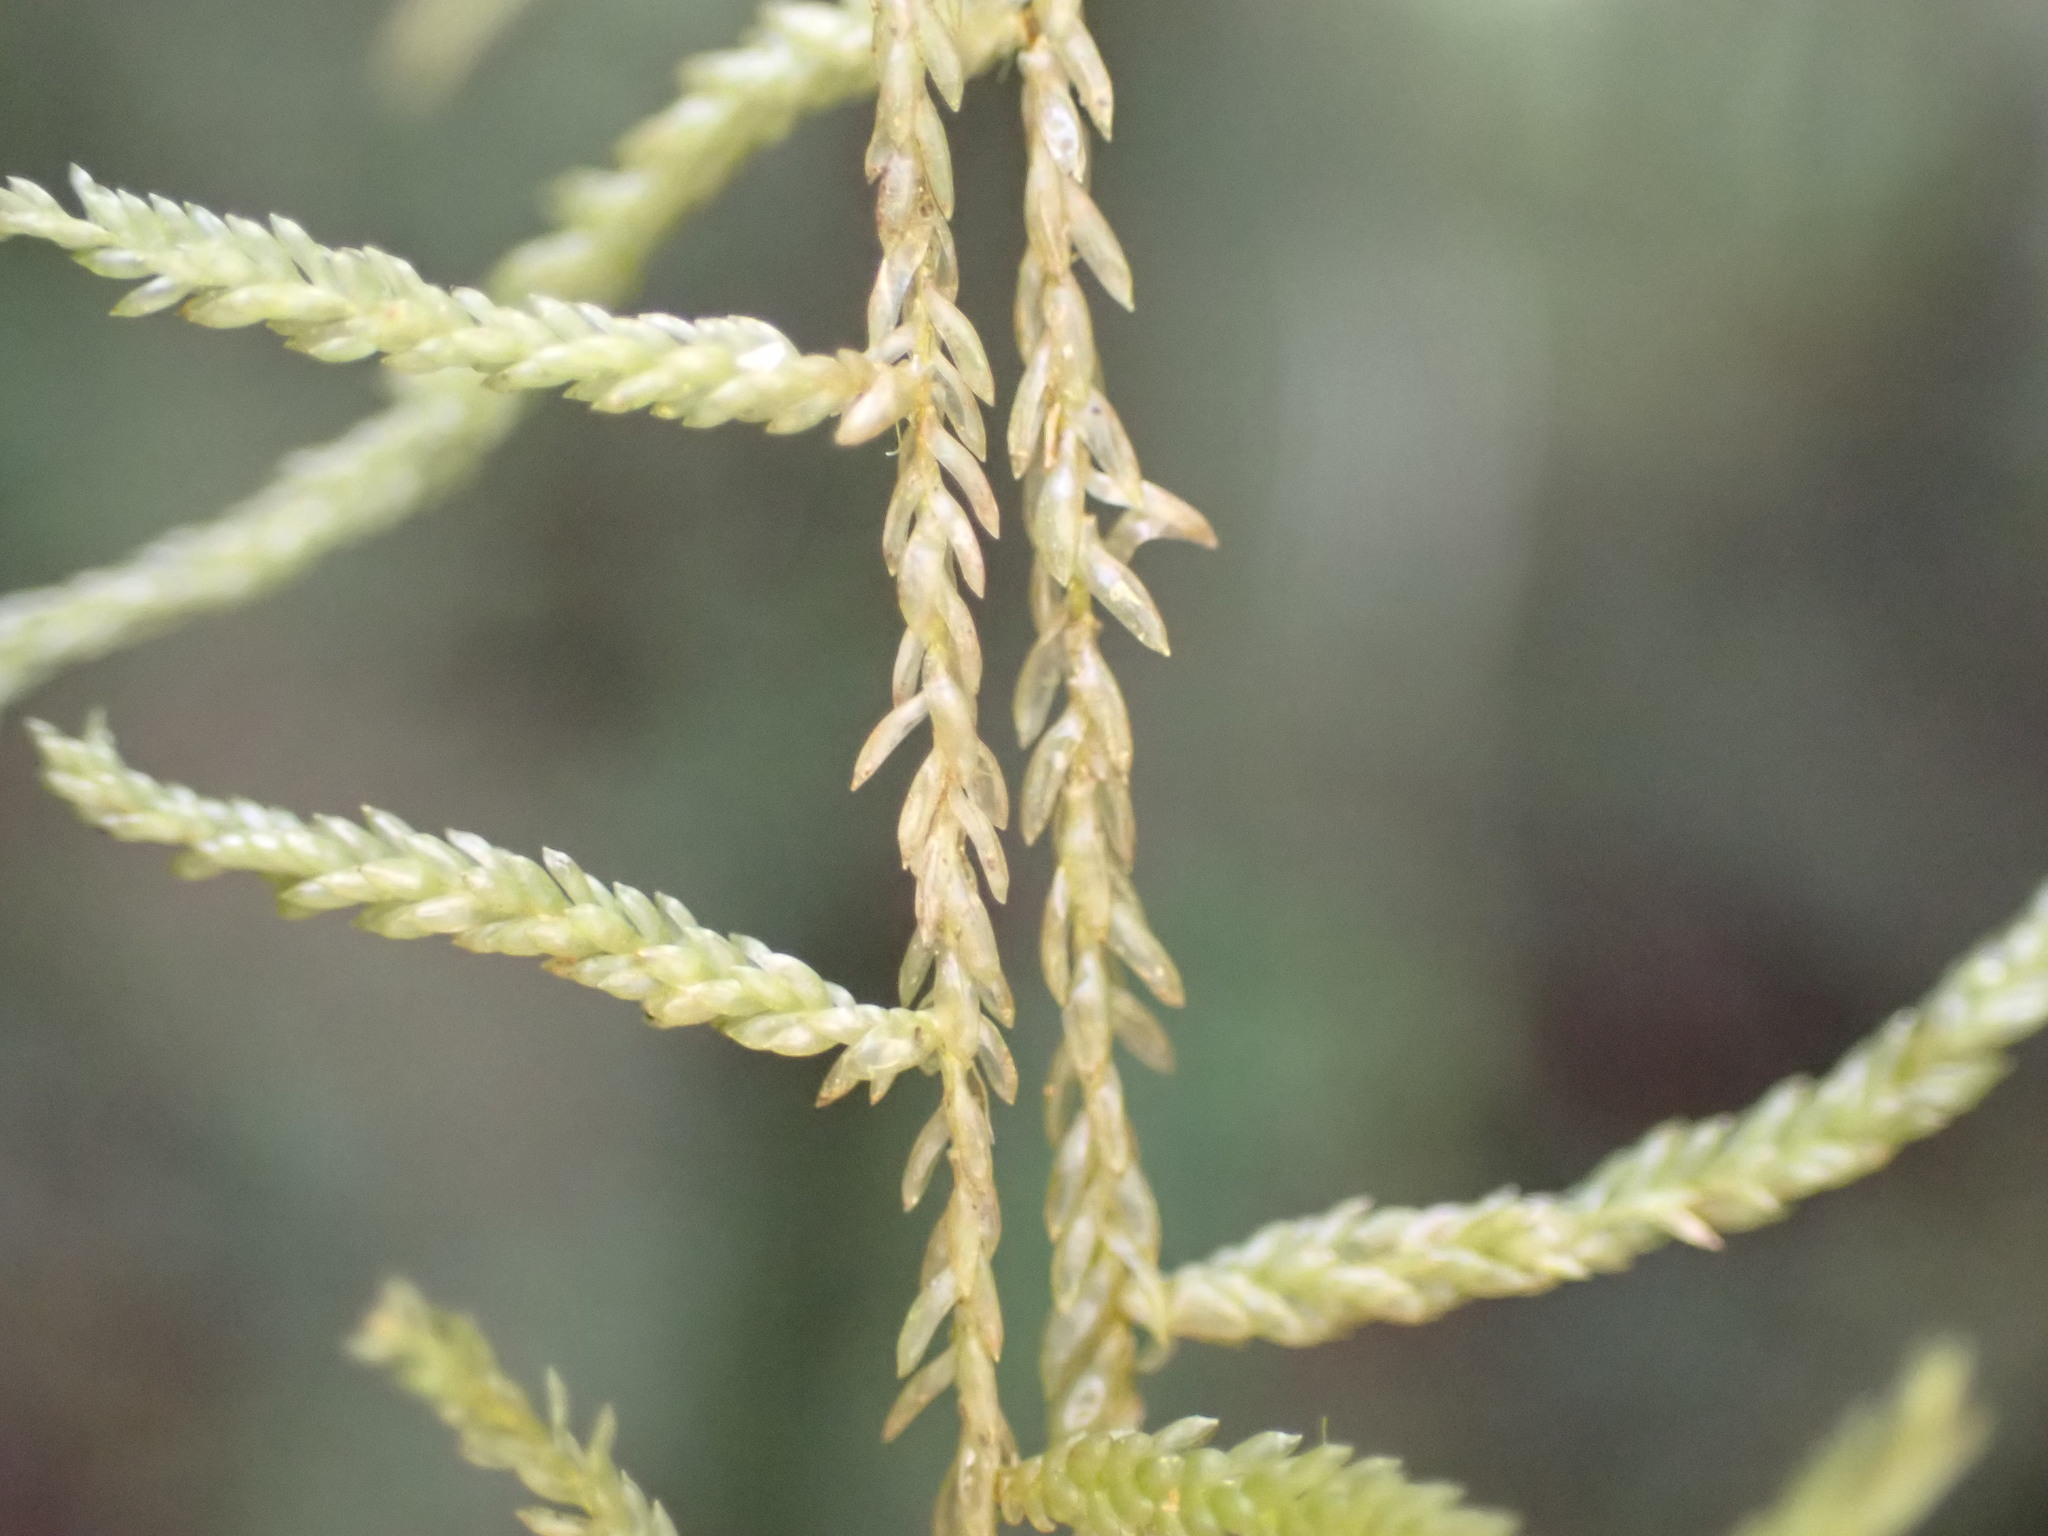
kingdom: Plantae
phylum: Bryophyta
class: Bryopsida
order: Hypnales
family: Lembophyllaceae
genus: Weymouthia
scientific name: Weymouthia mollis
